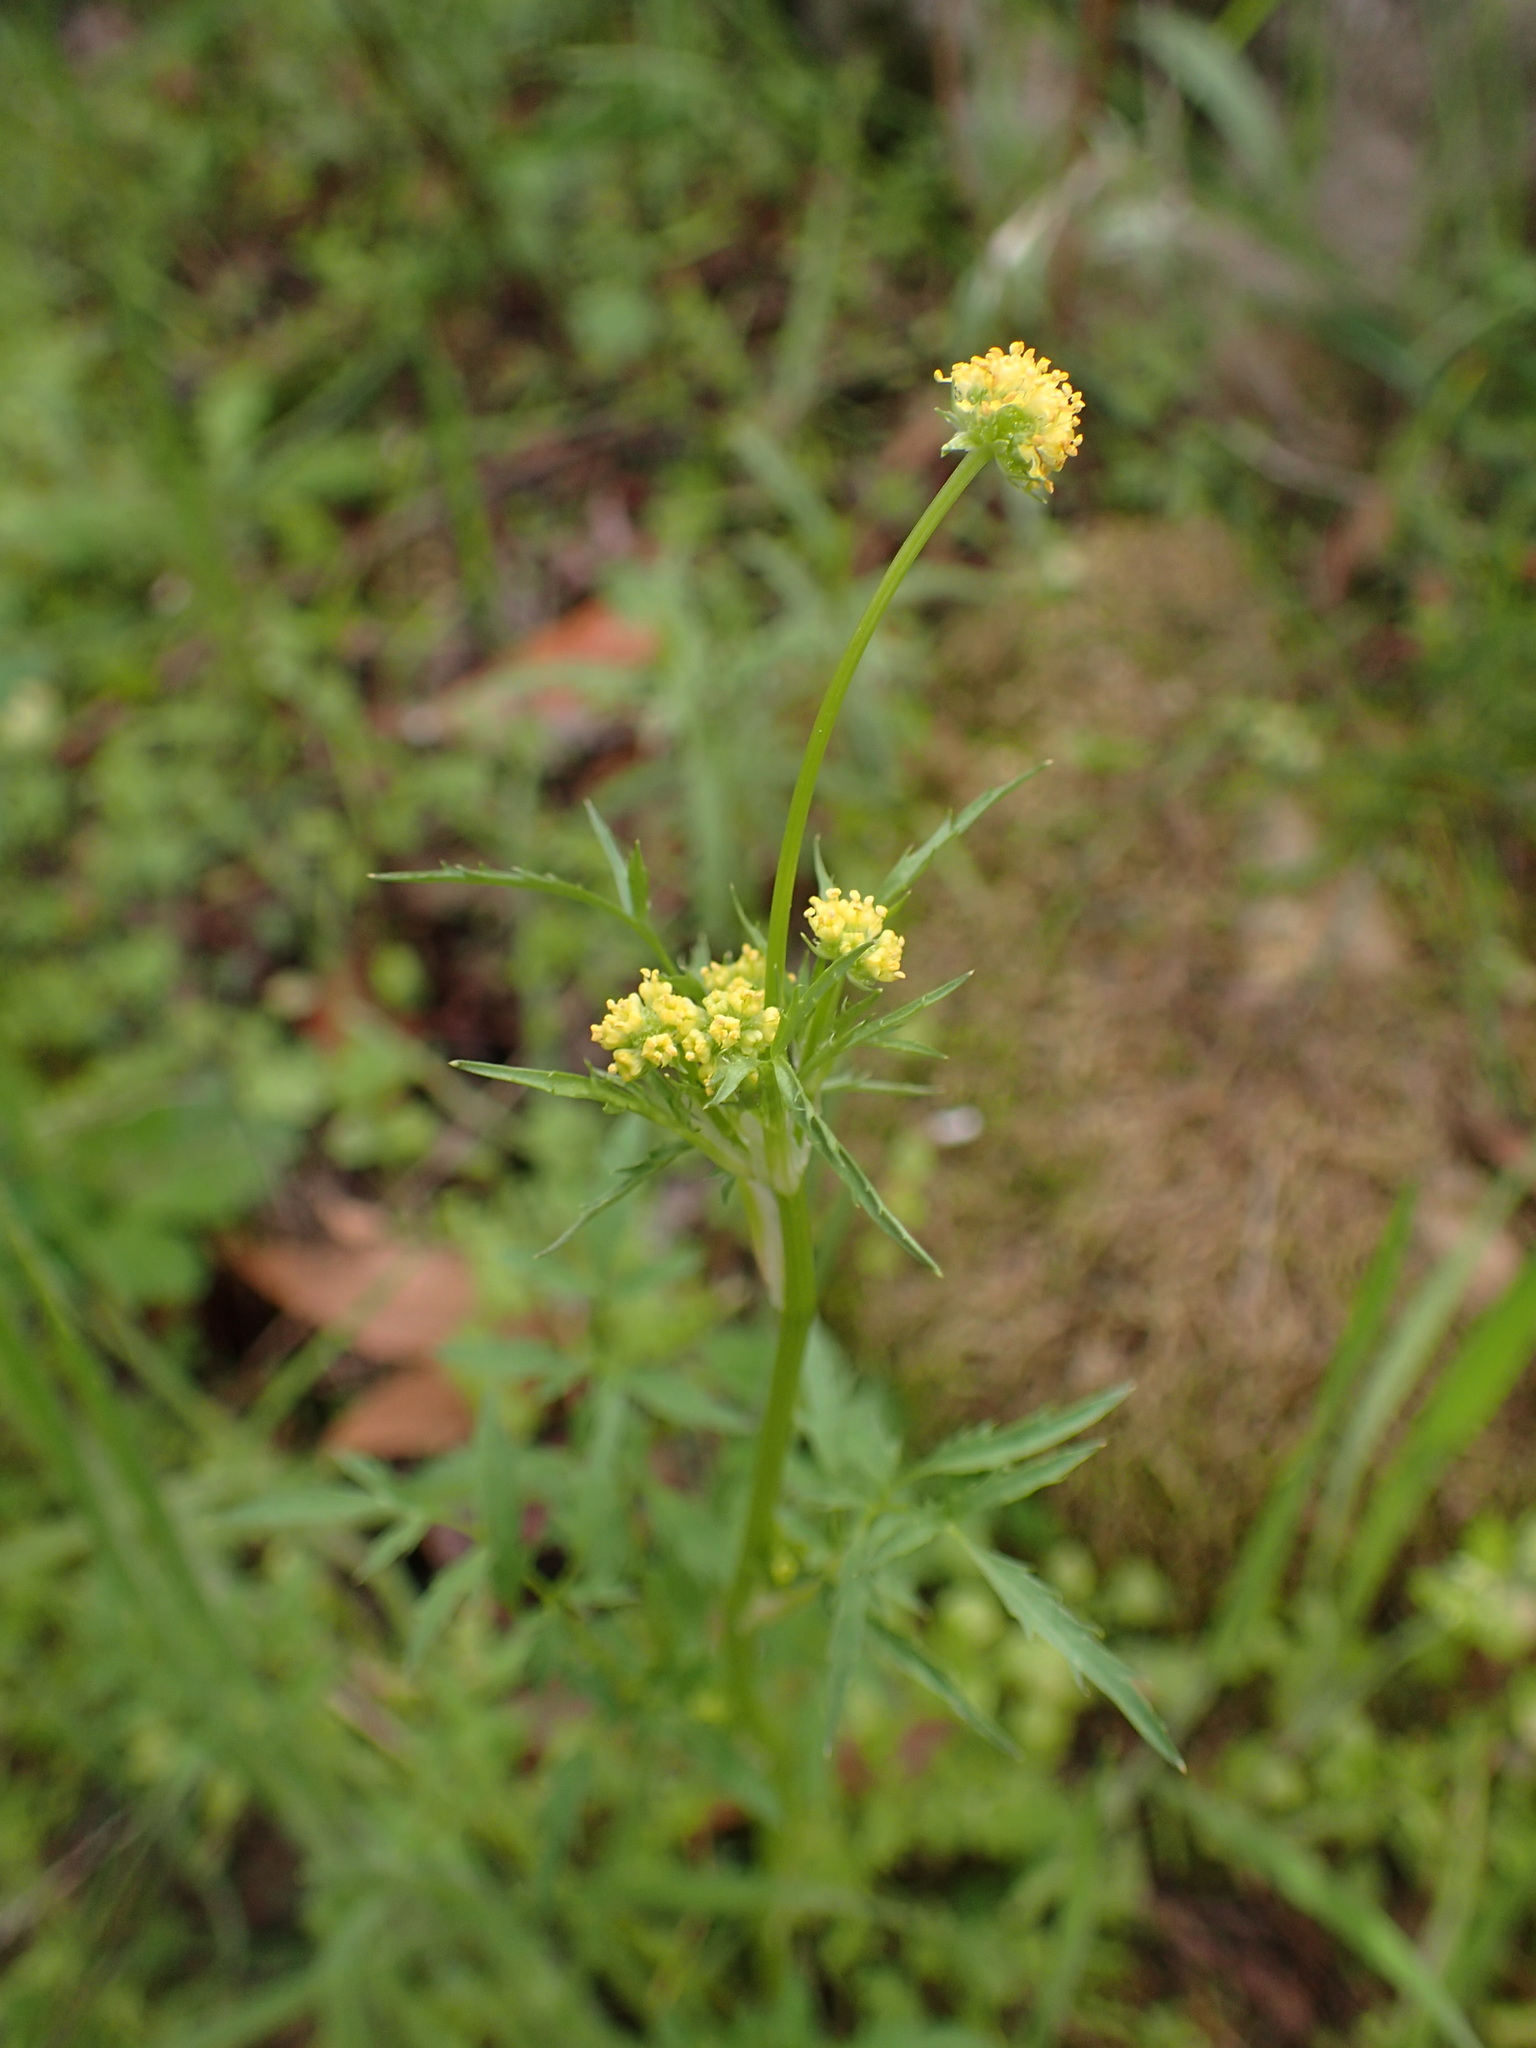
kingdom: Plantae
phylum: Tracheophyta
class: Magnoliopsida
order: Apiales
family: Apiaceae
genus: Sanicula
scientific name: Sanicula bipinnata
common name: Poison sanicle
